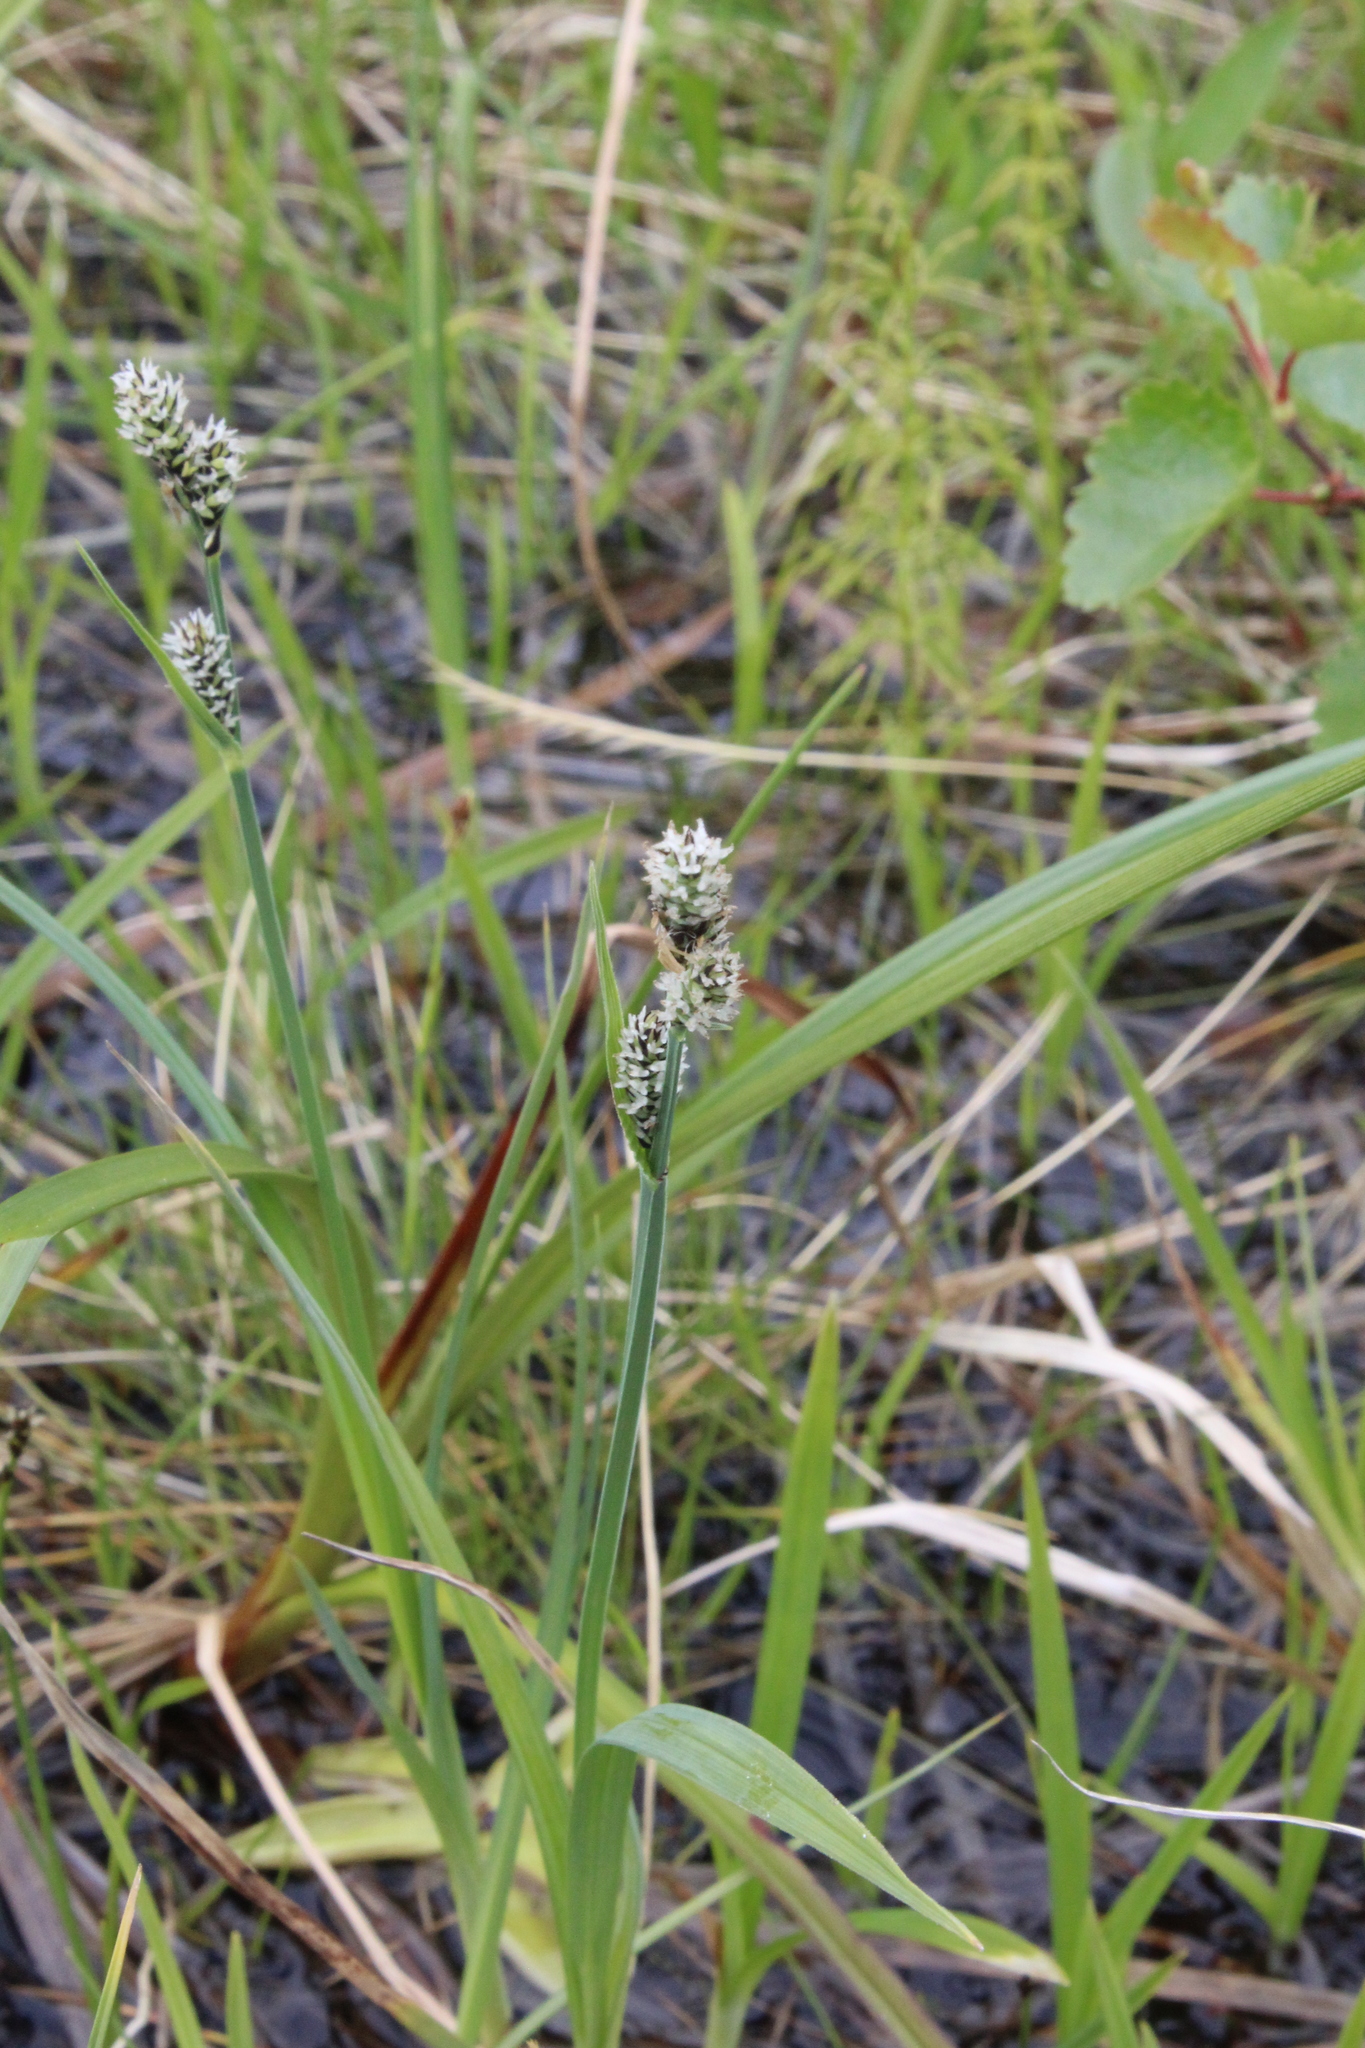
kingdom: Plantae
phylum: Tracheophyta
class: Liliopsida
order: Poales
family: Cyperaceae
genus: Carex
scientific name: Carex adelostoma
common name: Circumpolar sedge
